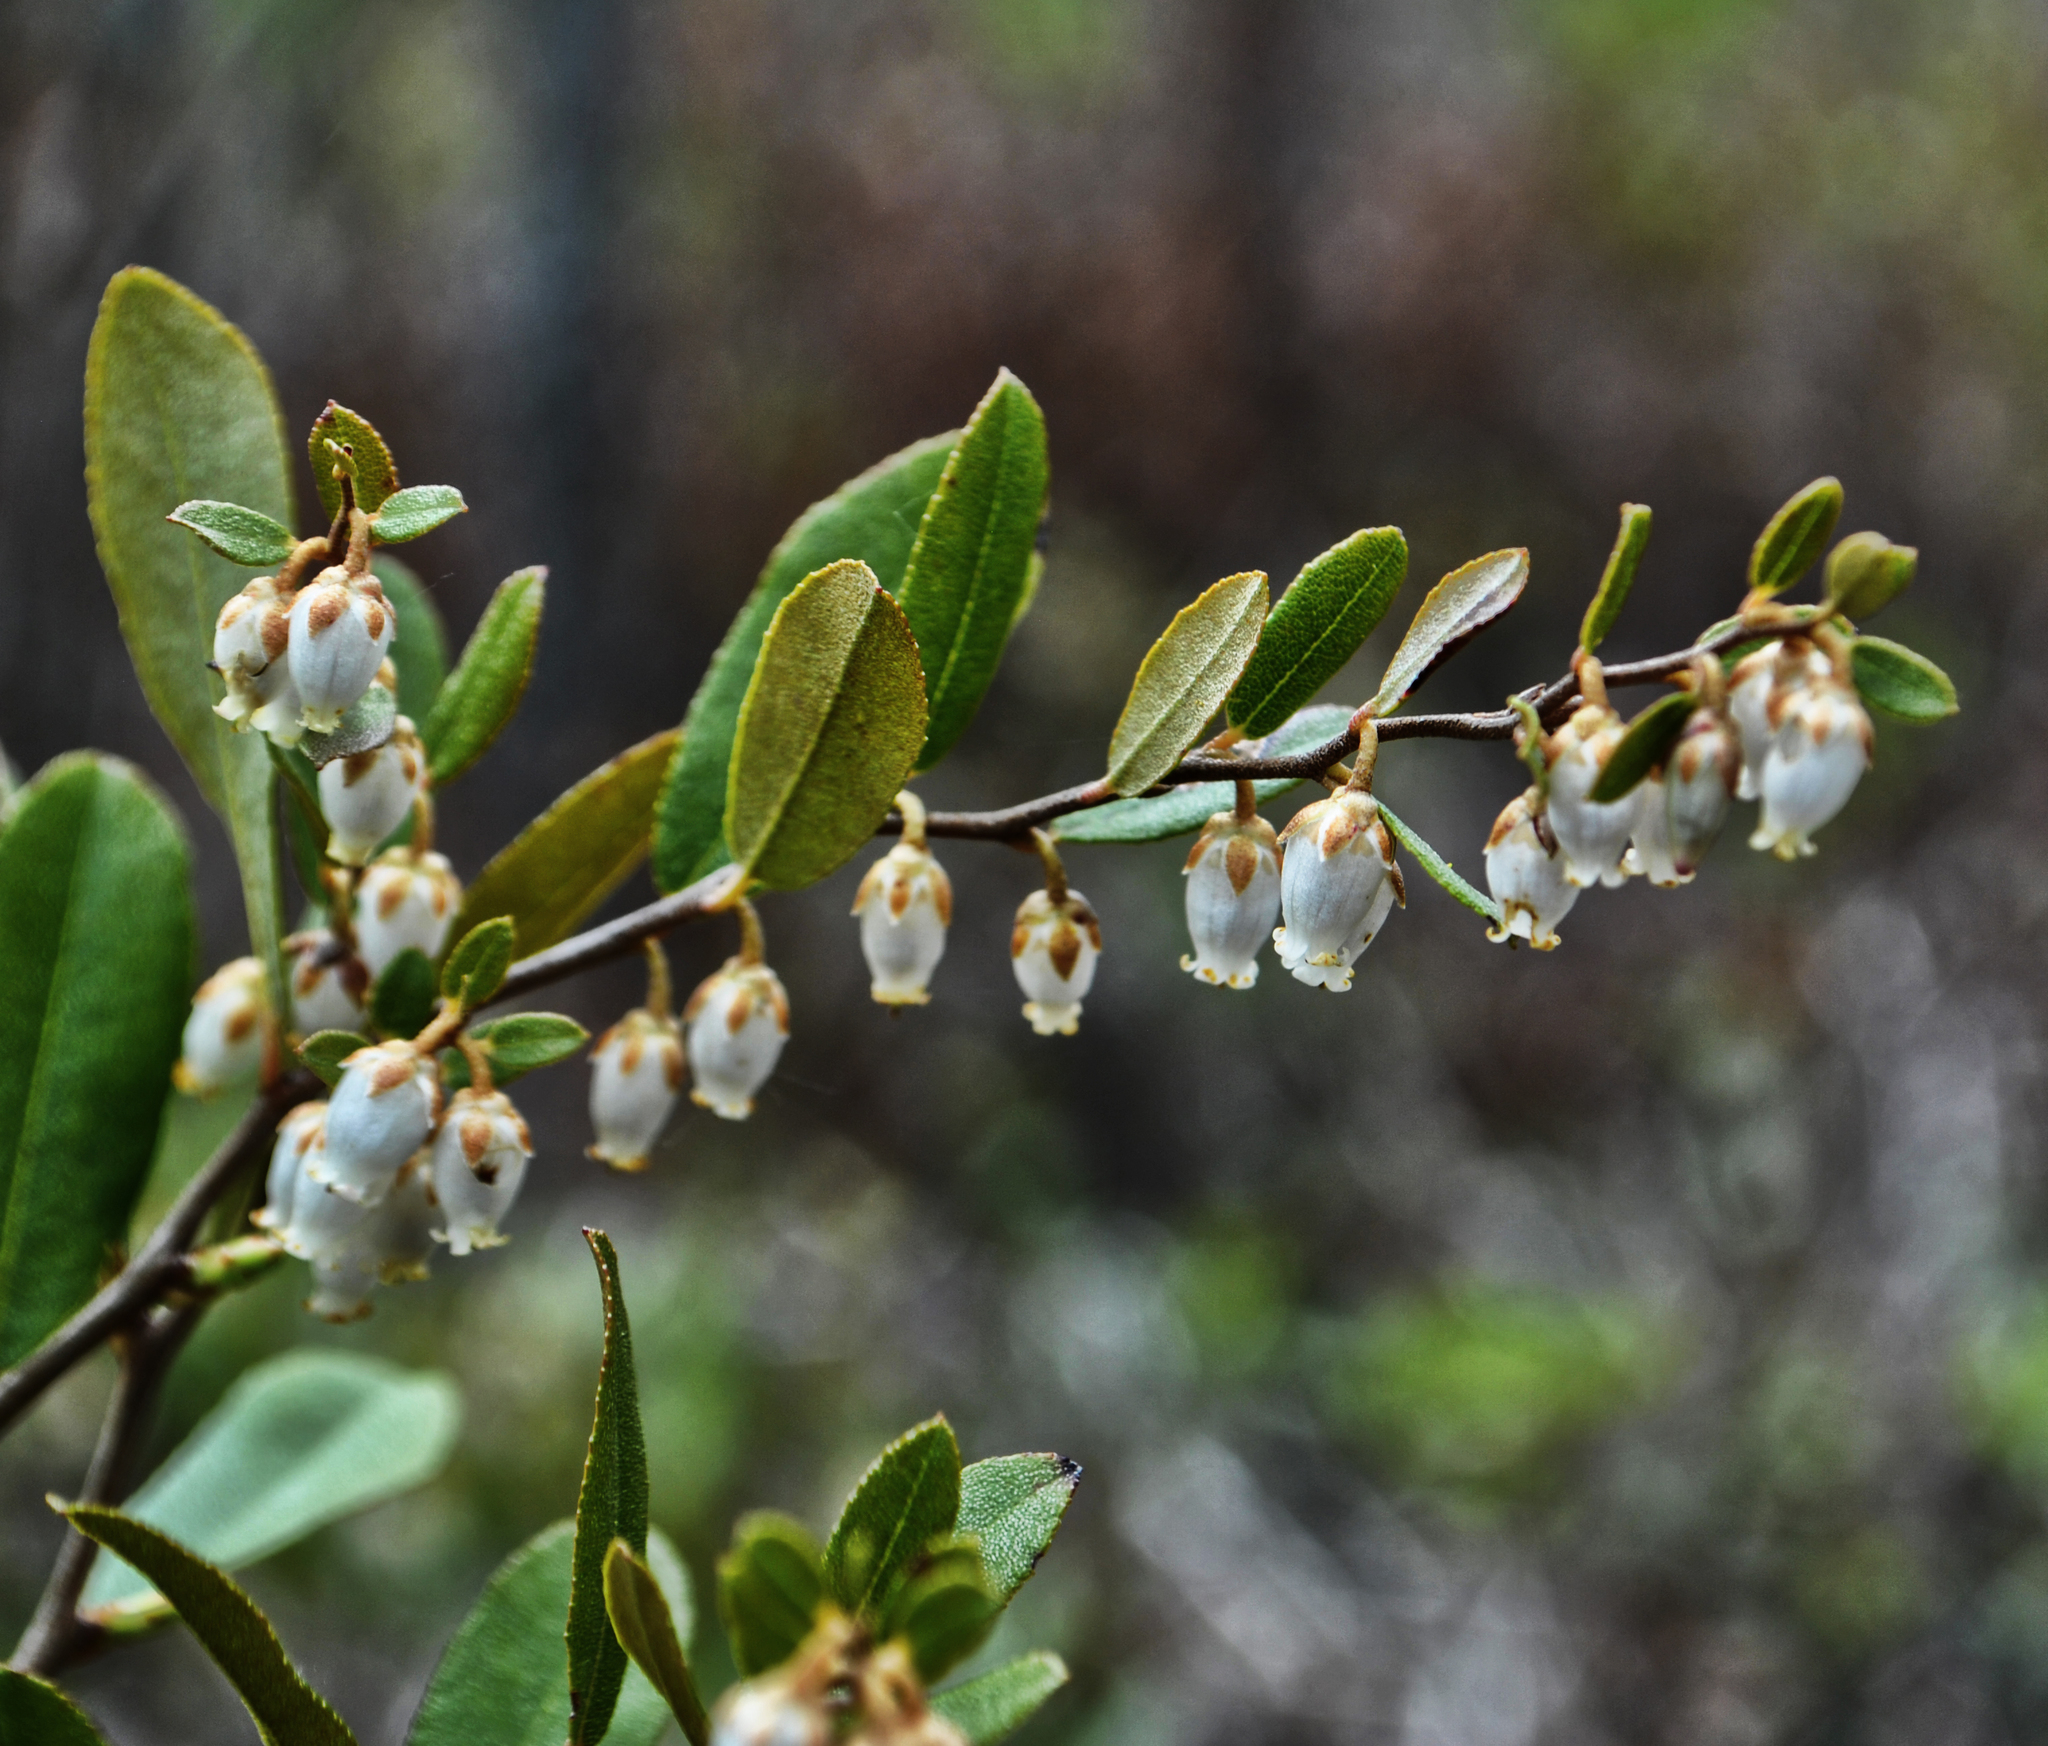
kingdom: Plantae
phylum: Tracheophyta
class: Magnoliopsida
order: Ericales
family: Ericaceae
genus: Chamaedaphne
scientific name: Chamaedaphne calyculata
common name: Leatherleaf
